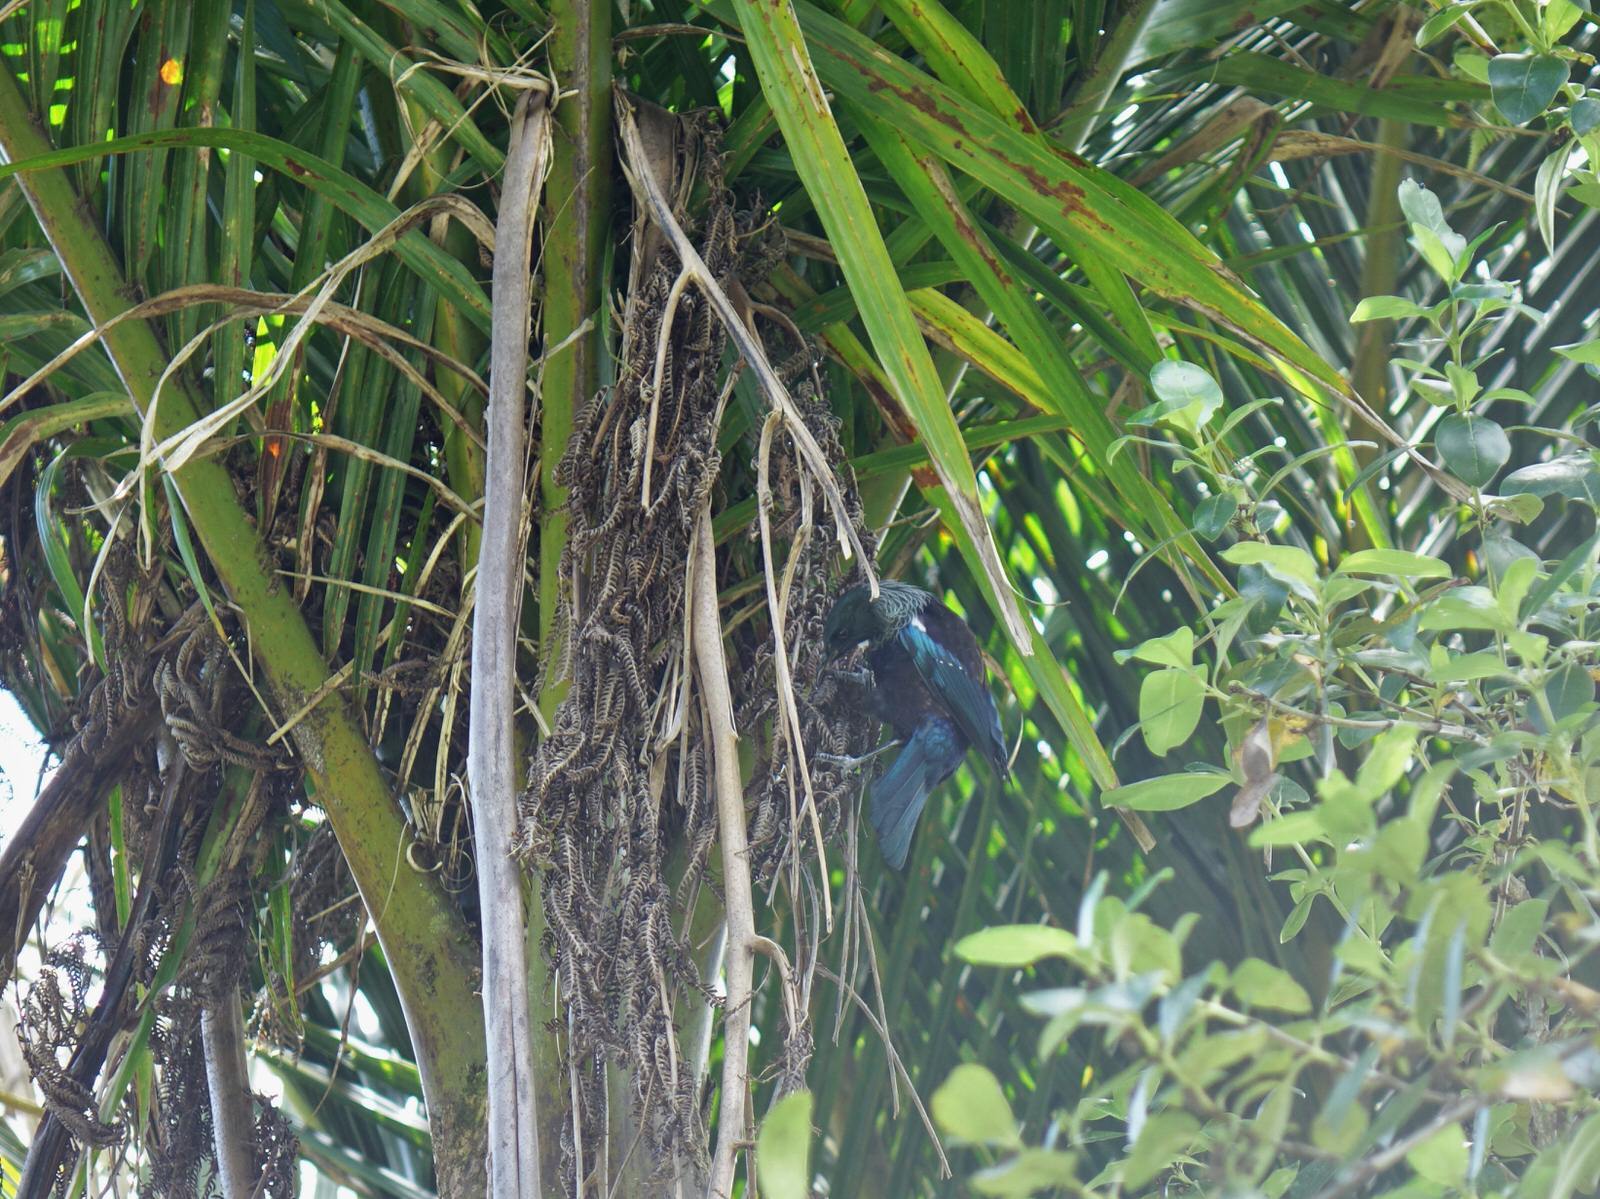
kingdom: Animalia
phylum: Chordata
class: Aves
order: Passeriformes
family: Meliphagidae
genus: Prosthemadera
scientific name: Prosthemadera novaeseelandiae
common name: Tui
